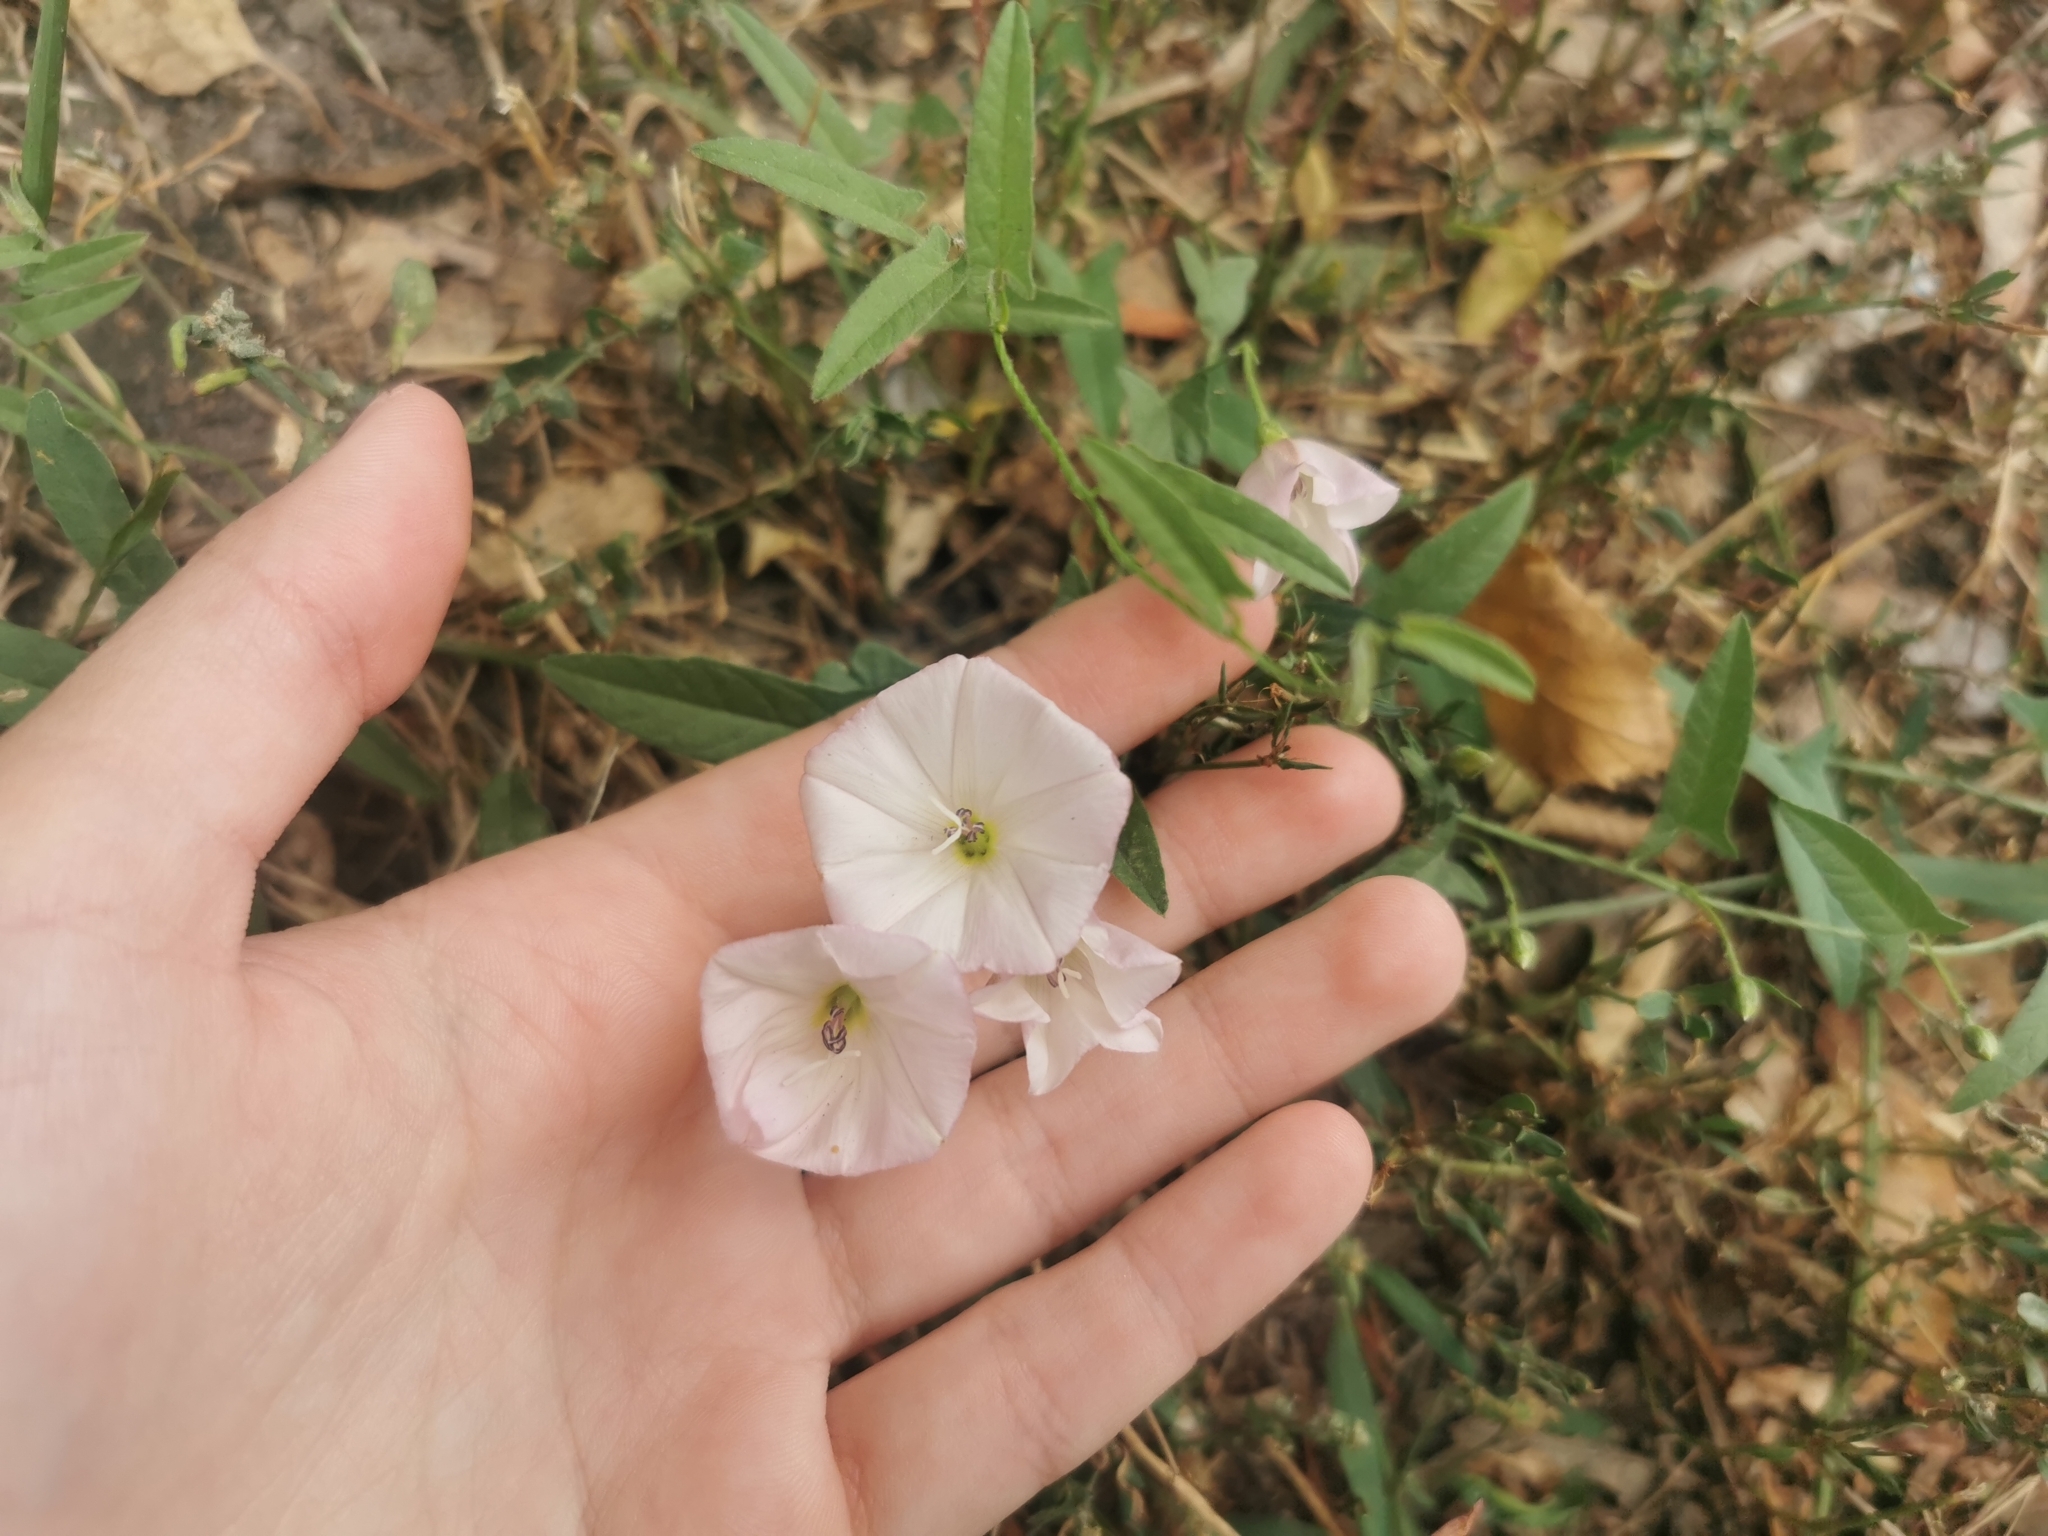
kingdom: Plantae
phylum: Tracheophyta
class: Magnoliopsida
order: Solanales
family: Convolvulaceae
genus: Convolvulus
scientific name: Convolvulus arvensis
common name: Field bindweed
